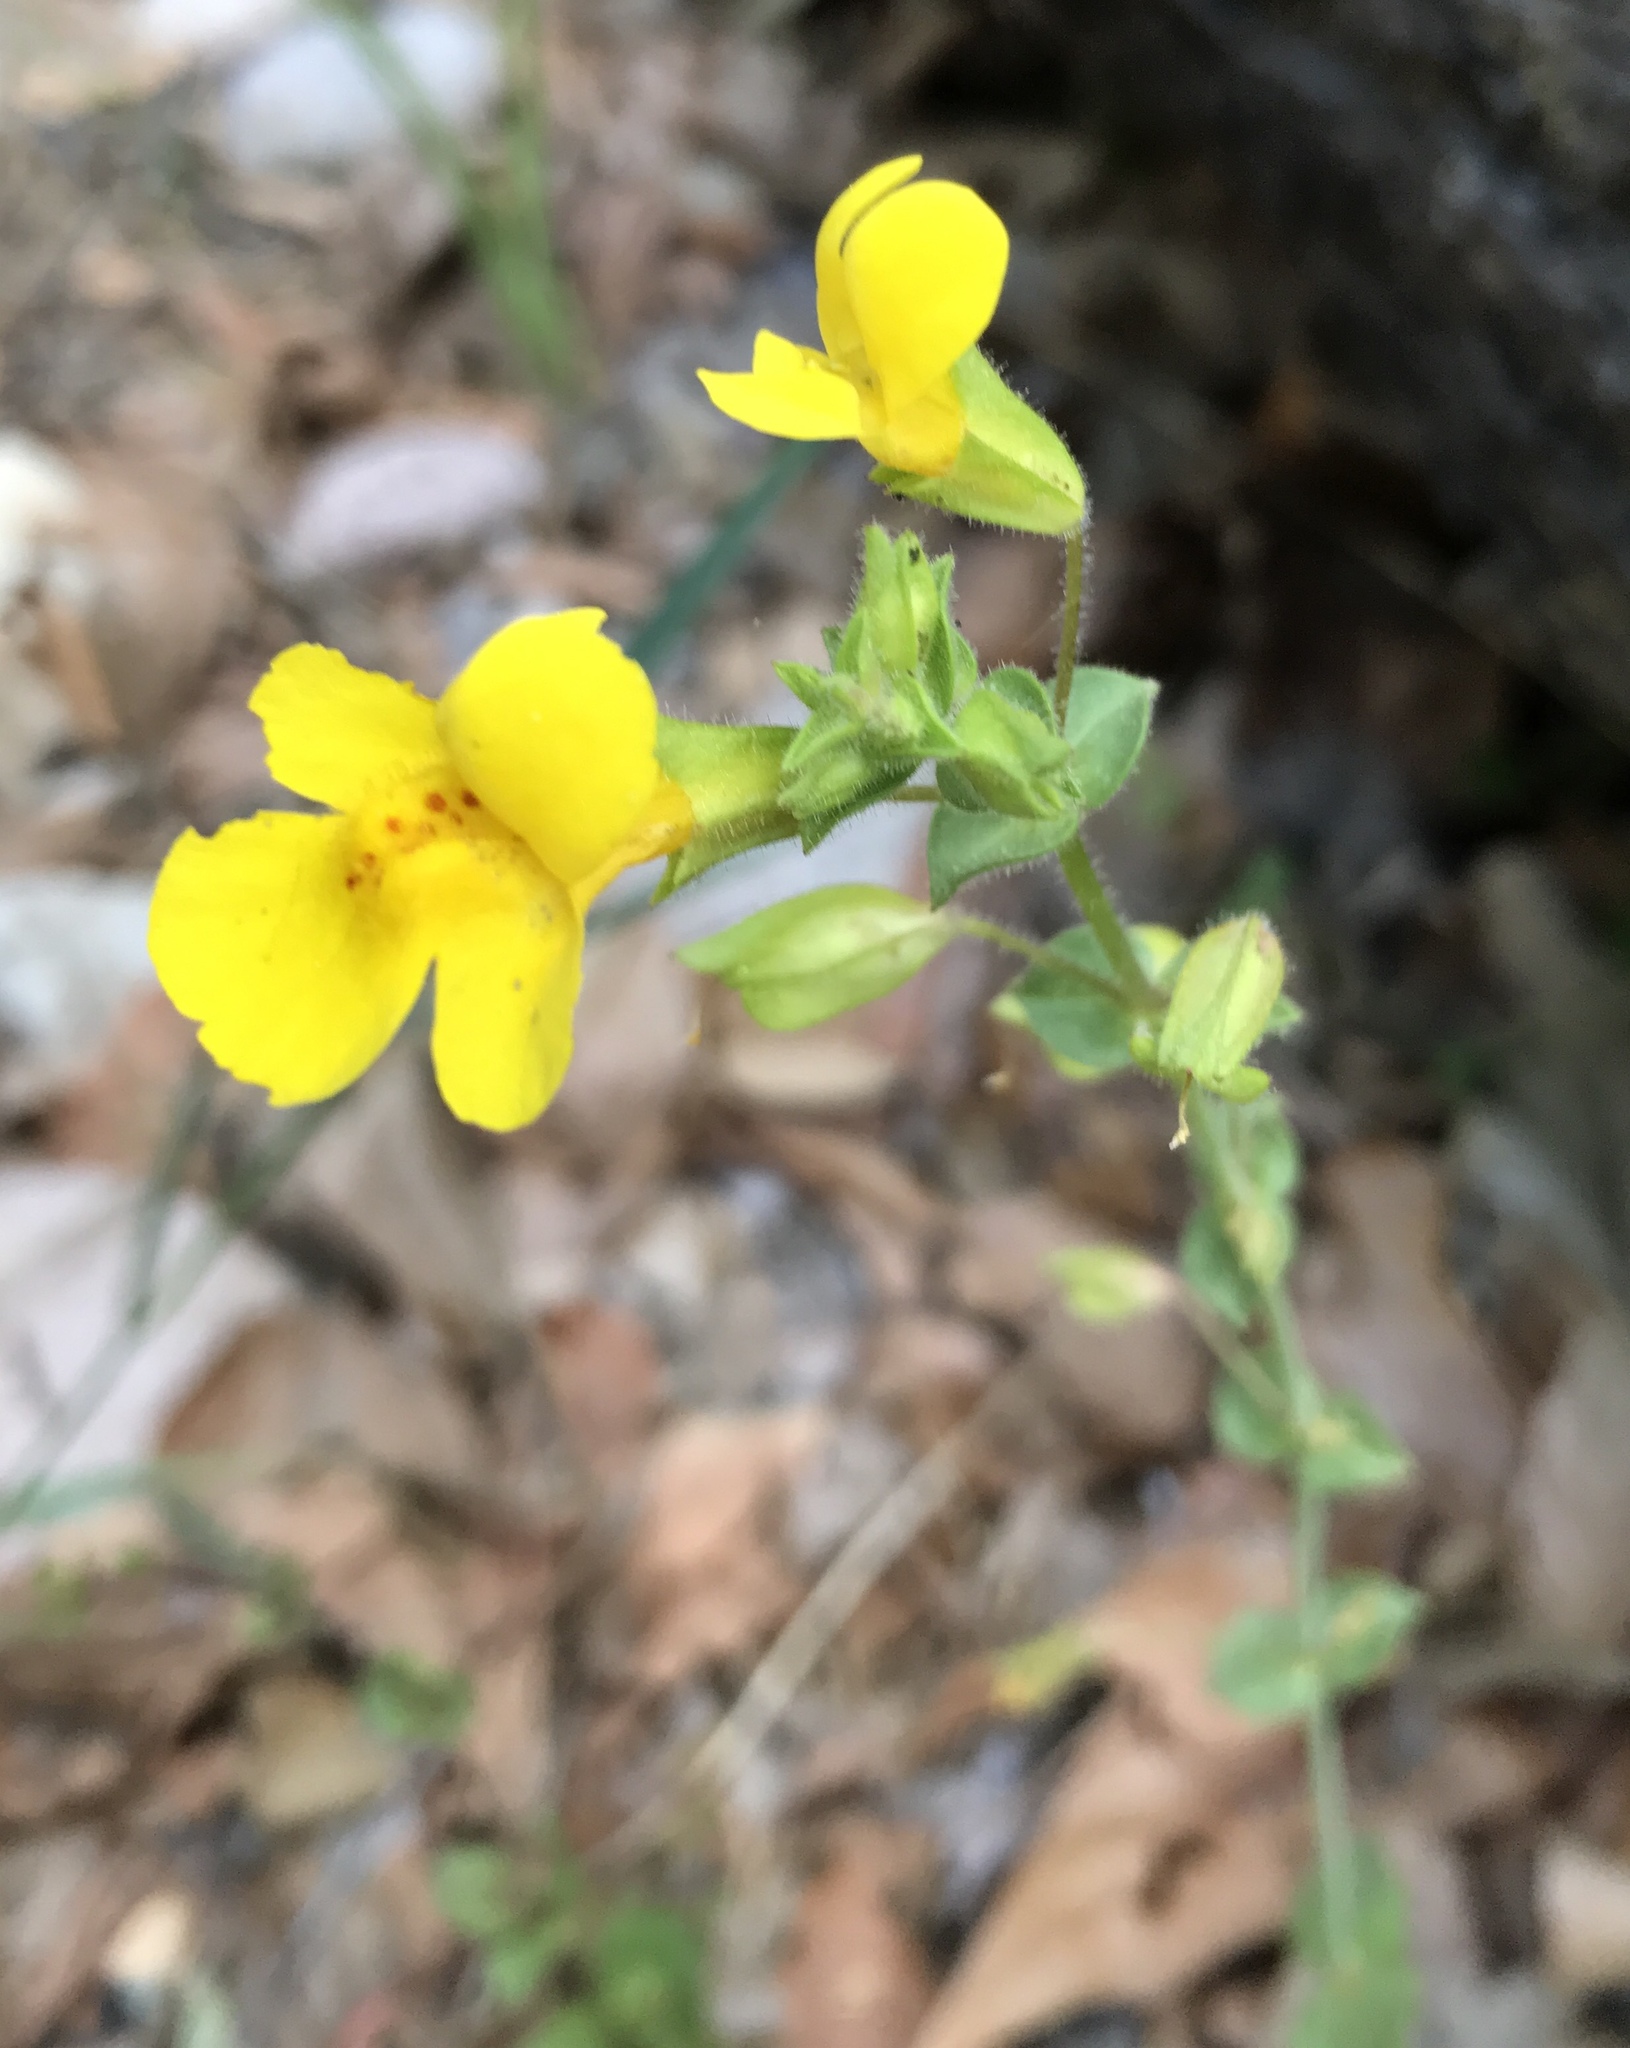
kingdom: Plantae
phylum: Tracheophyta
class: Magnoliopsida
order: Lamiales
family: Phrymaceae
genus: Erythranthe
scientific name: Erythranthe guttata
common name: Monkeyflower
